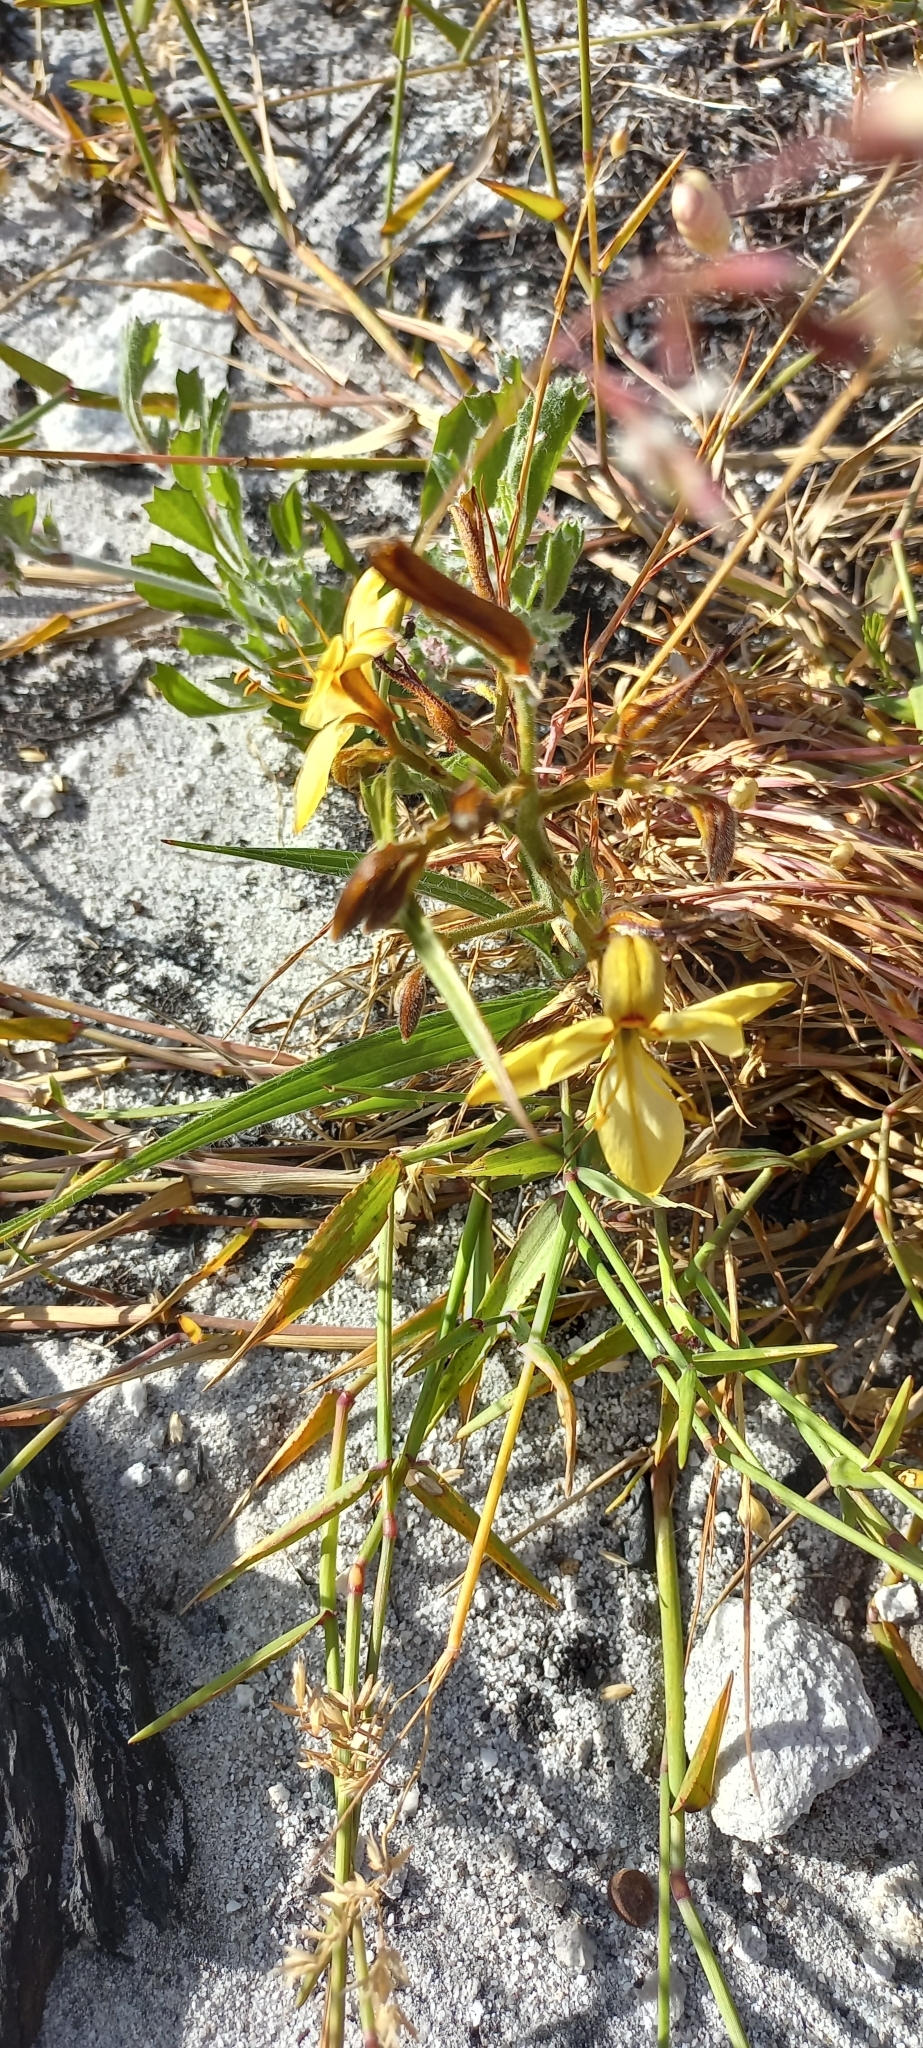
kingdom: Plantae
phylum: Tracheophyta
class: Liliopsida
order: Commelinales
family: Haemodoraceae
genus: Wachendorfia
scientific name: Wachendorfia paniculata
